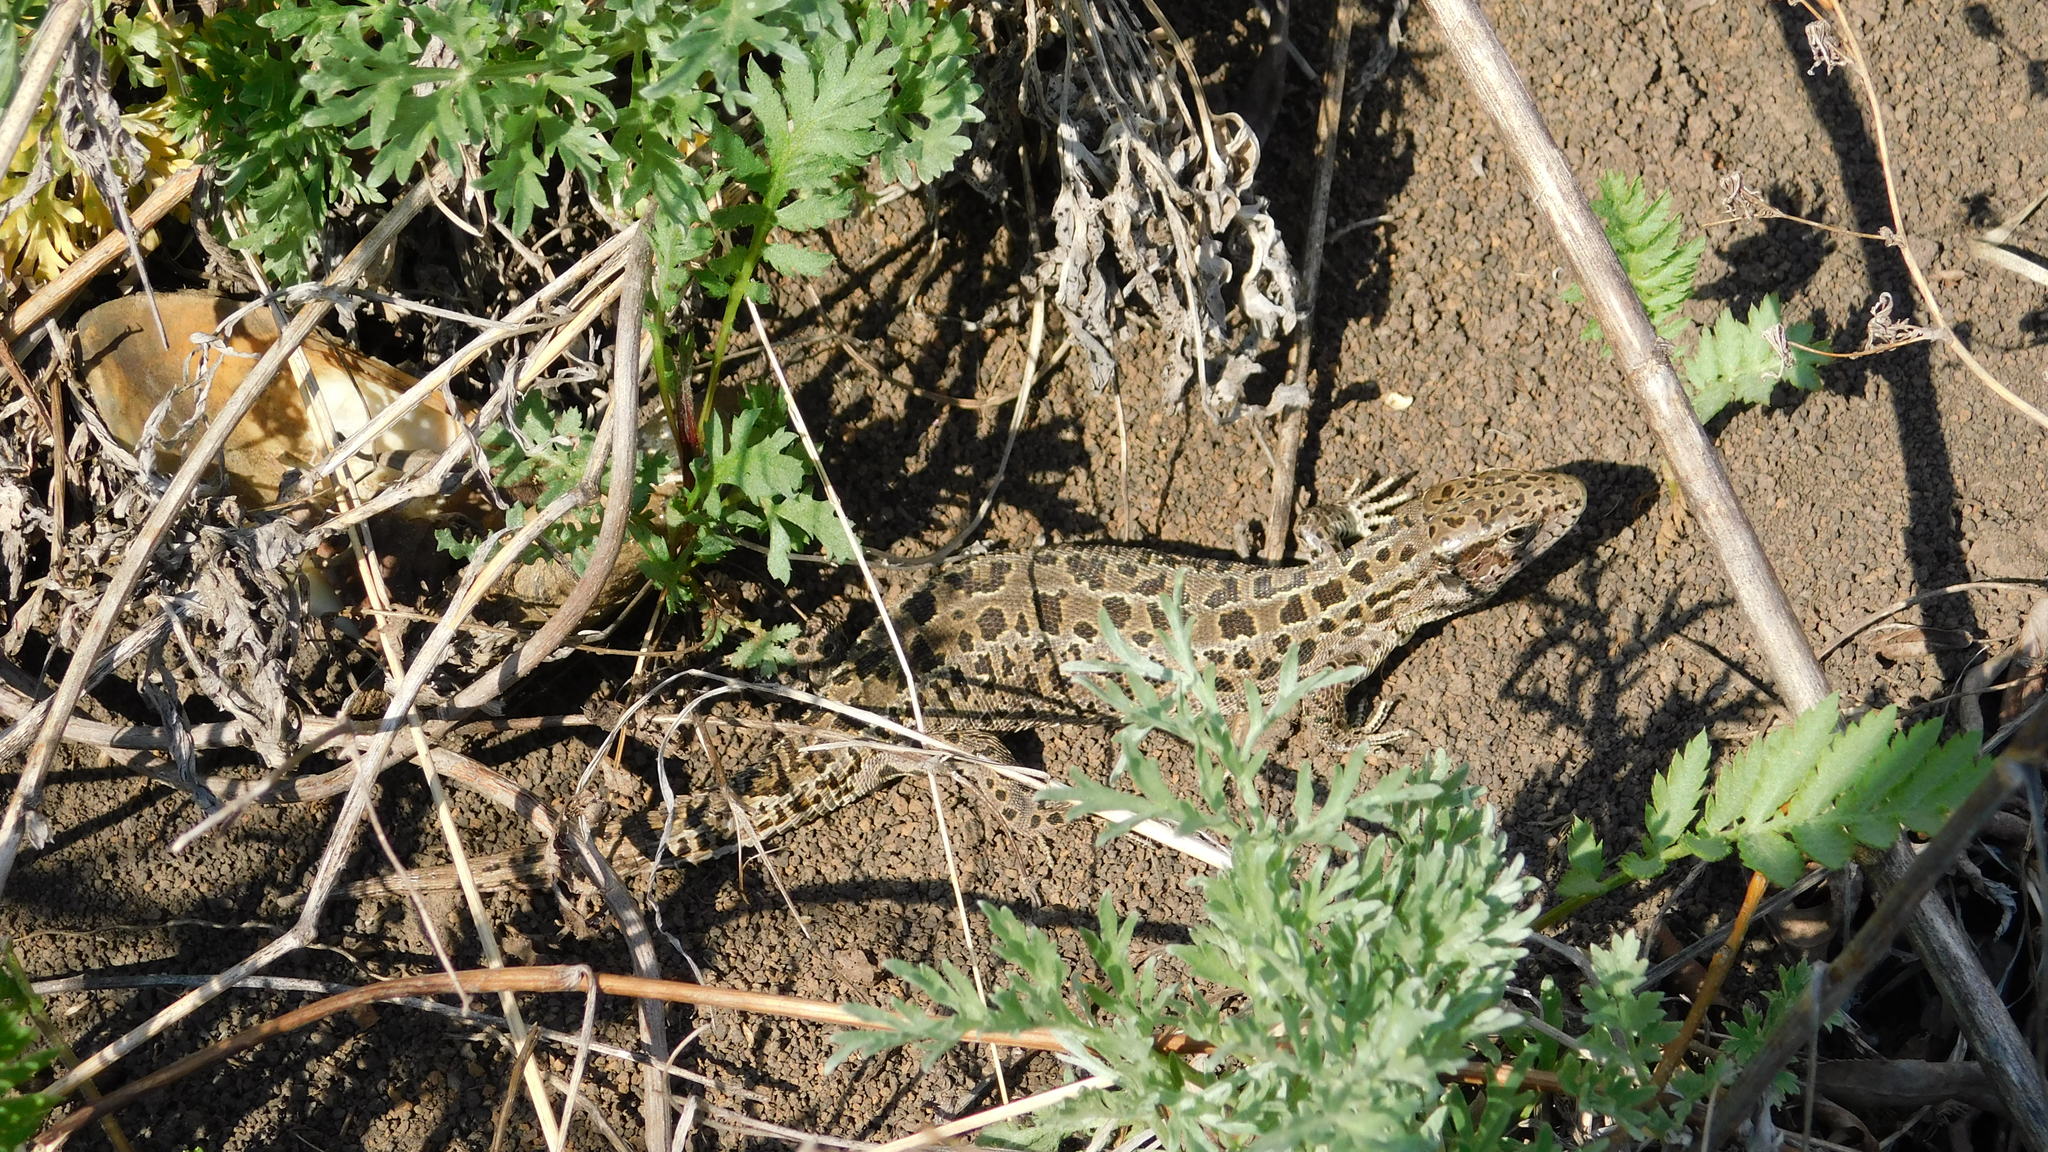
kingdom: Animalia
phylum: Chordata
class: Squamata
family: Lacertidae
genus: Lacerta
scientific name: Lacerta agilis
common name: Sand lizard
